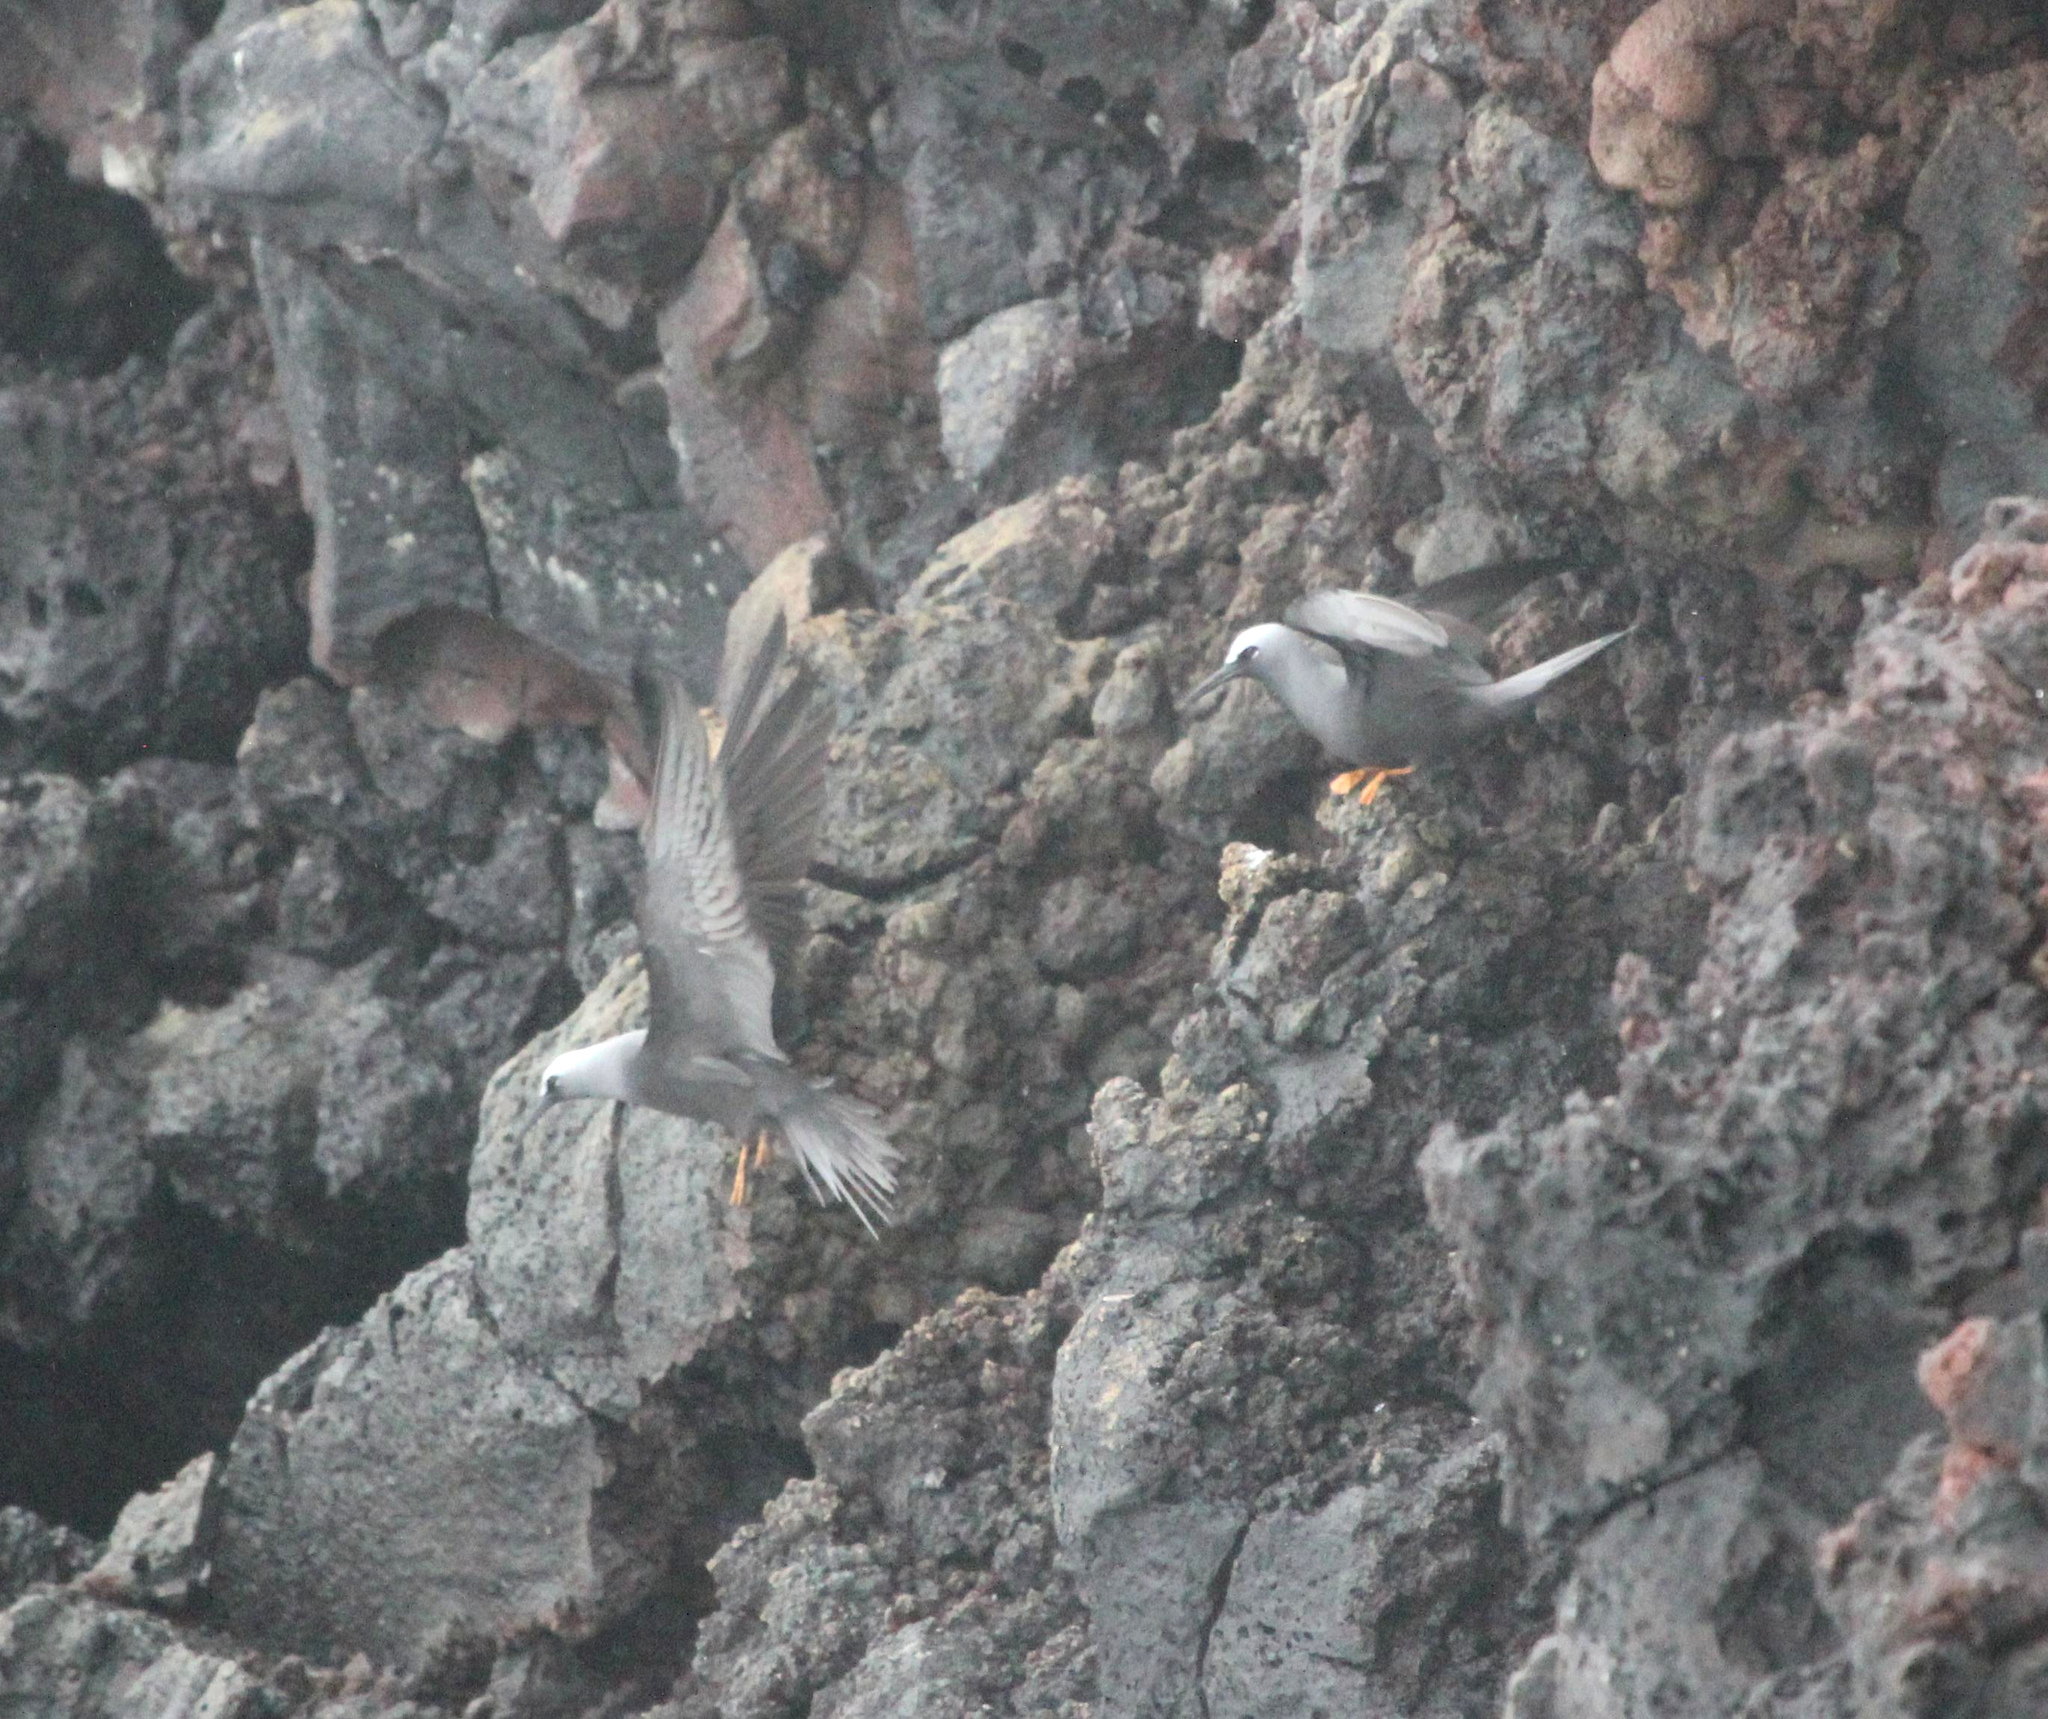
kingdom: Animalia
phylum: Chordata
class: Aves
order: Charadriiformes
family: Laridae
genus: Anous
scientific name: Anous minutus
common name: Black noddy
